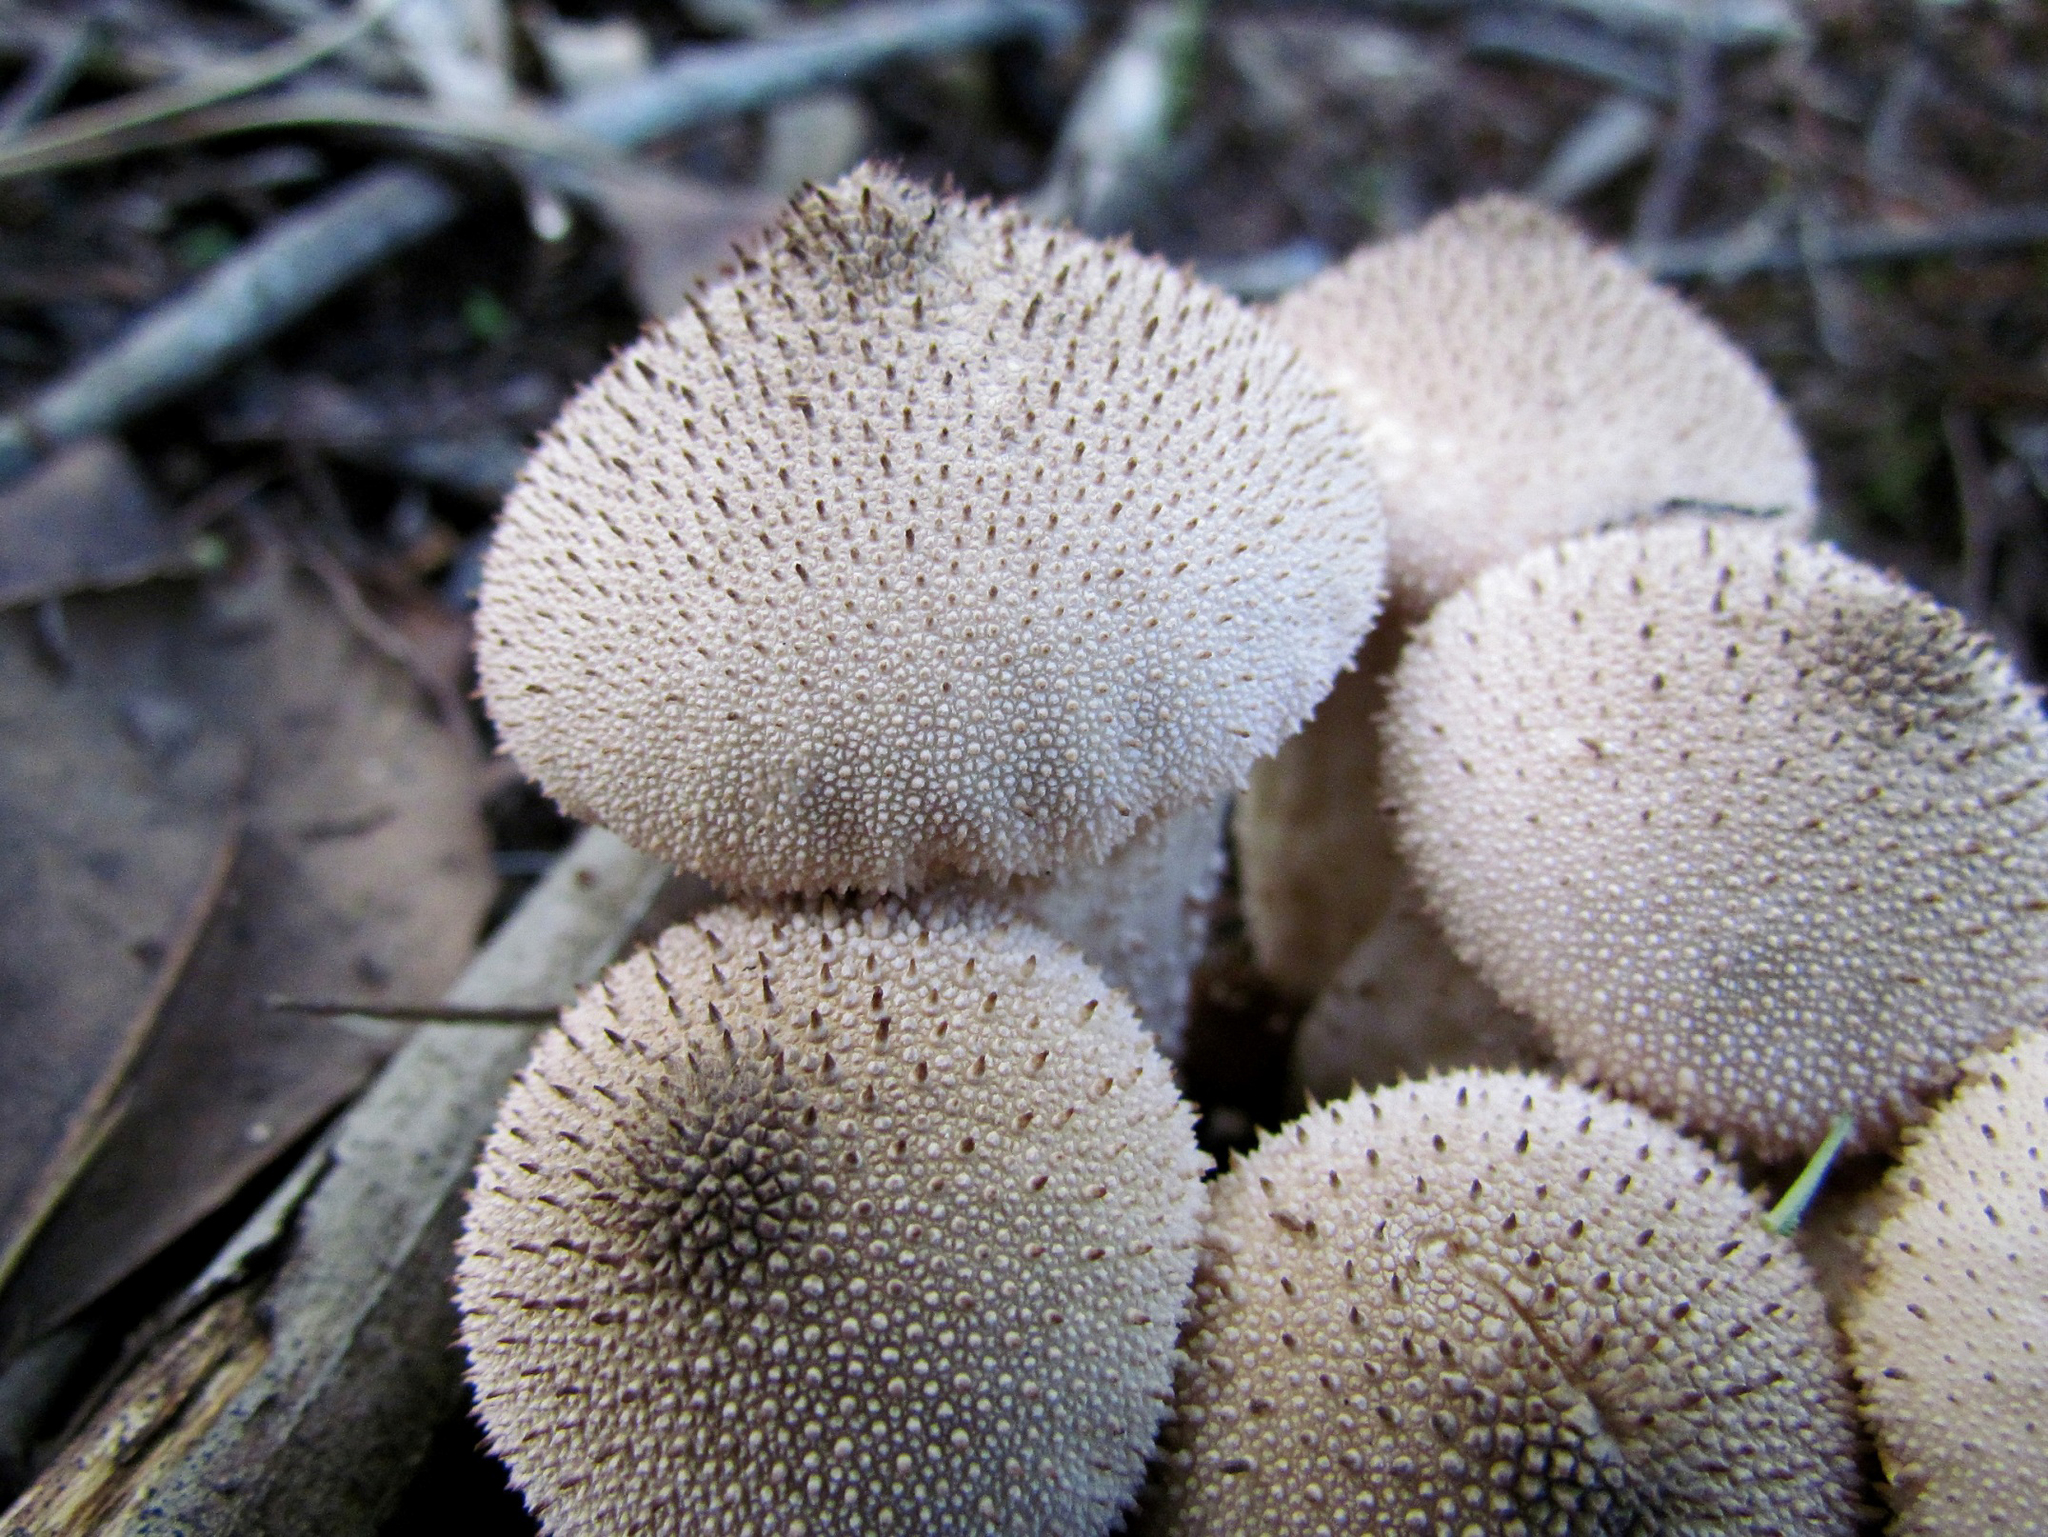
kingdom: Fungi
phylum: Basidiomycota
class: Agaricomycetes
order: Agaricales
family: Lycoperdaceae
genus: Lycoperdon
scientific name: Lycoperdon perlatum
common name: Common puffball
